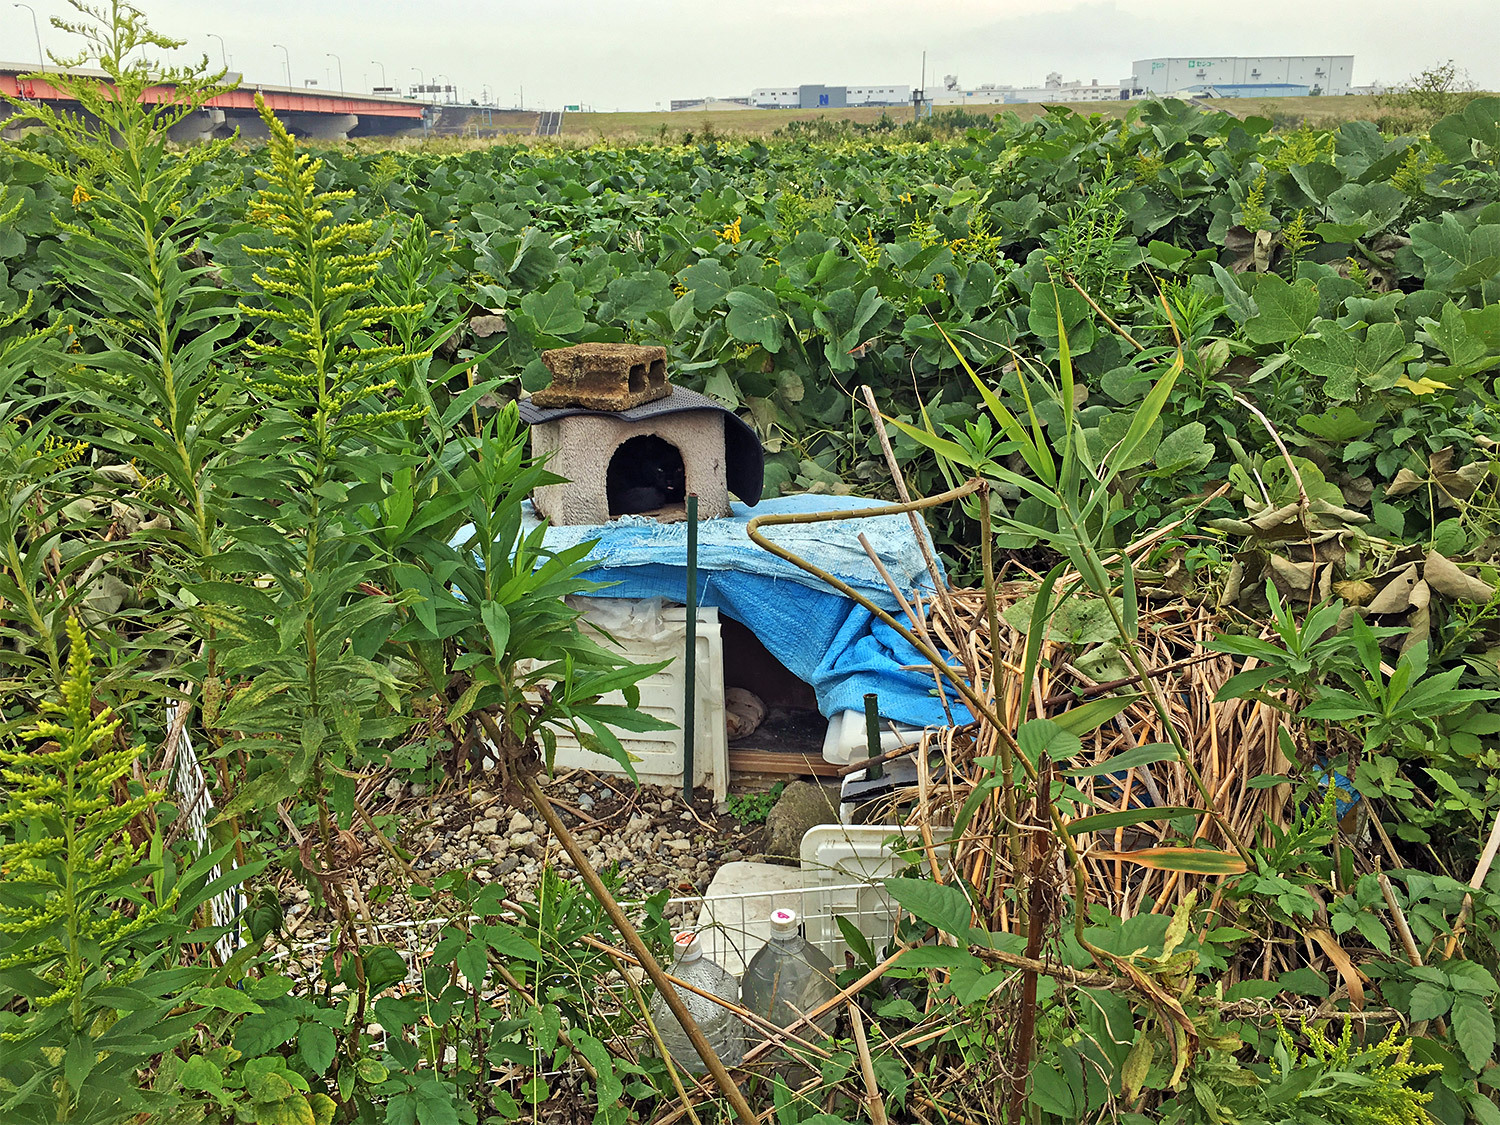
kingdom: Animalia
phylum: Chordata
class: Mammalia
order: Carnivora
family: Felidae
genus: Felis
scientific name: Felis catus
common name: Domestic cat
